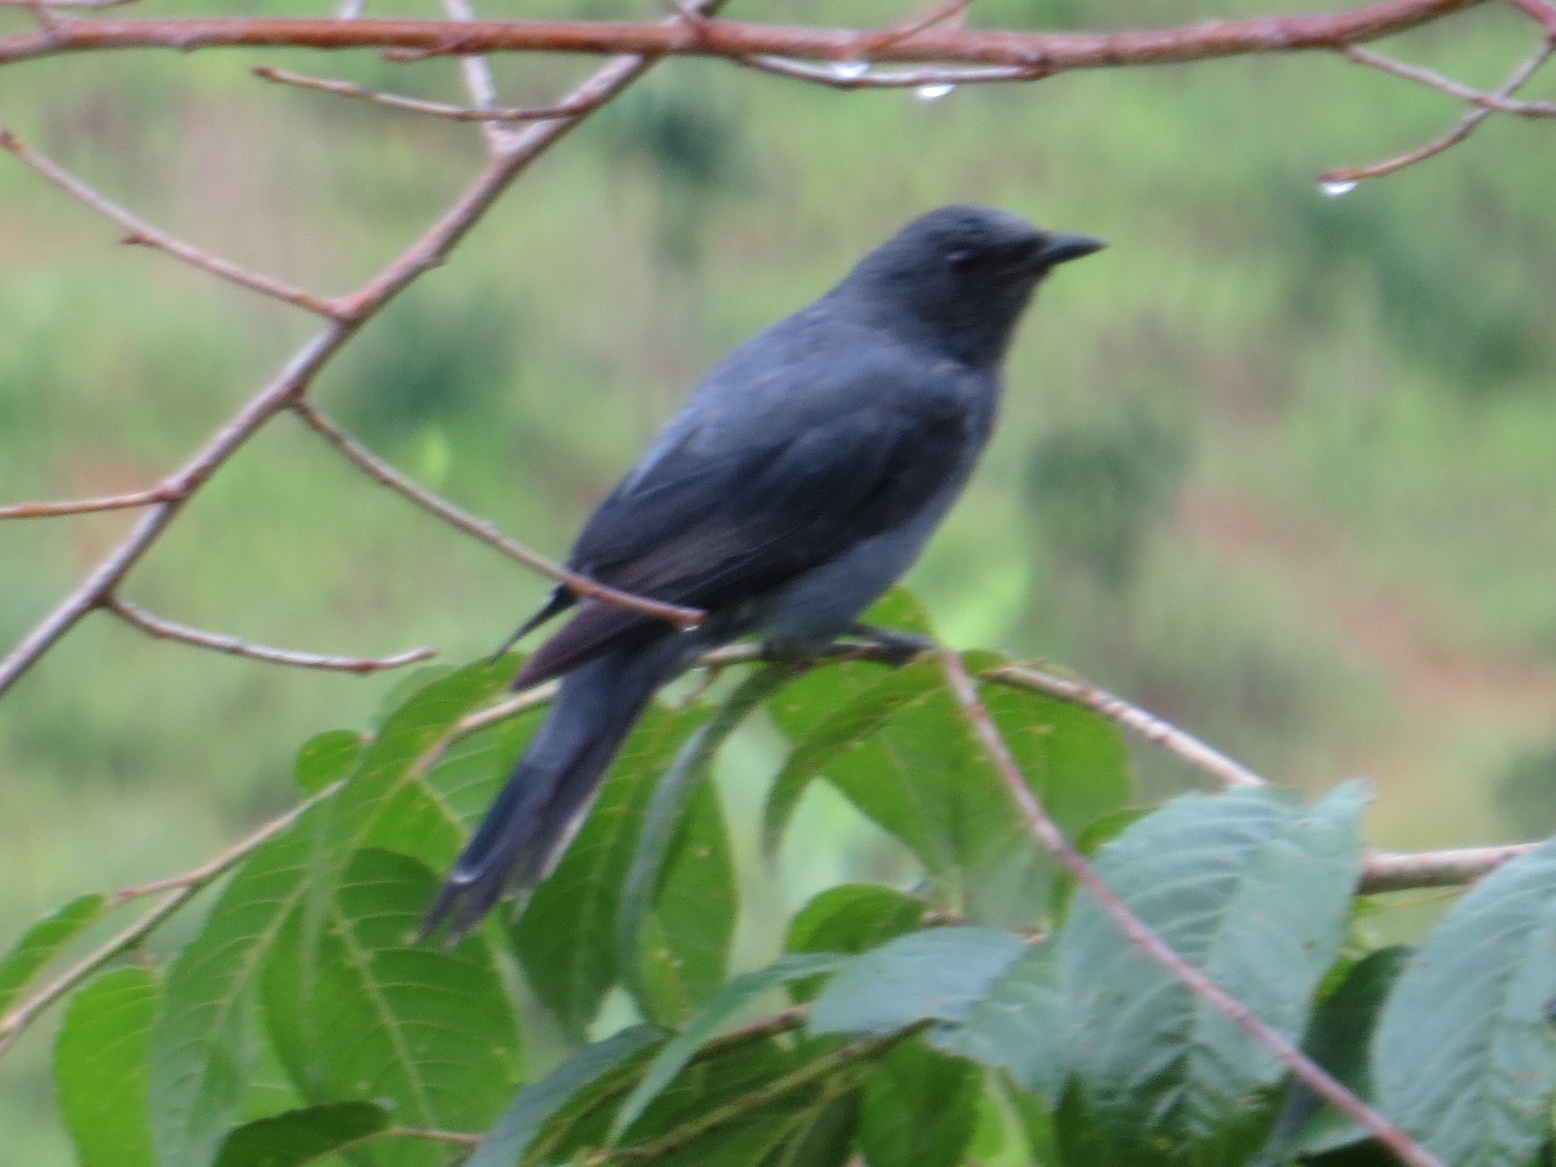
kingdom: Animalia
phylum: Chordata
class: Aves
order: Passeriformes
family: Campephagidae
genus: Coracina
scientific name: Coracina melaschistos
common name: Black-winged cuckooshrike
